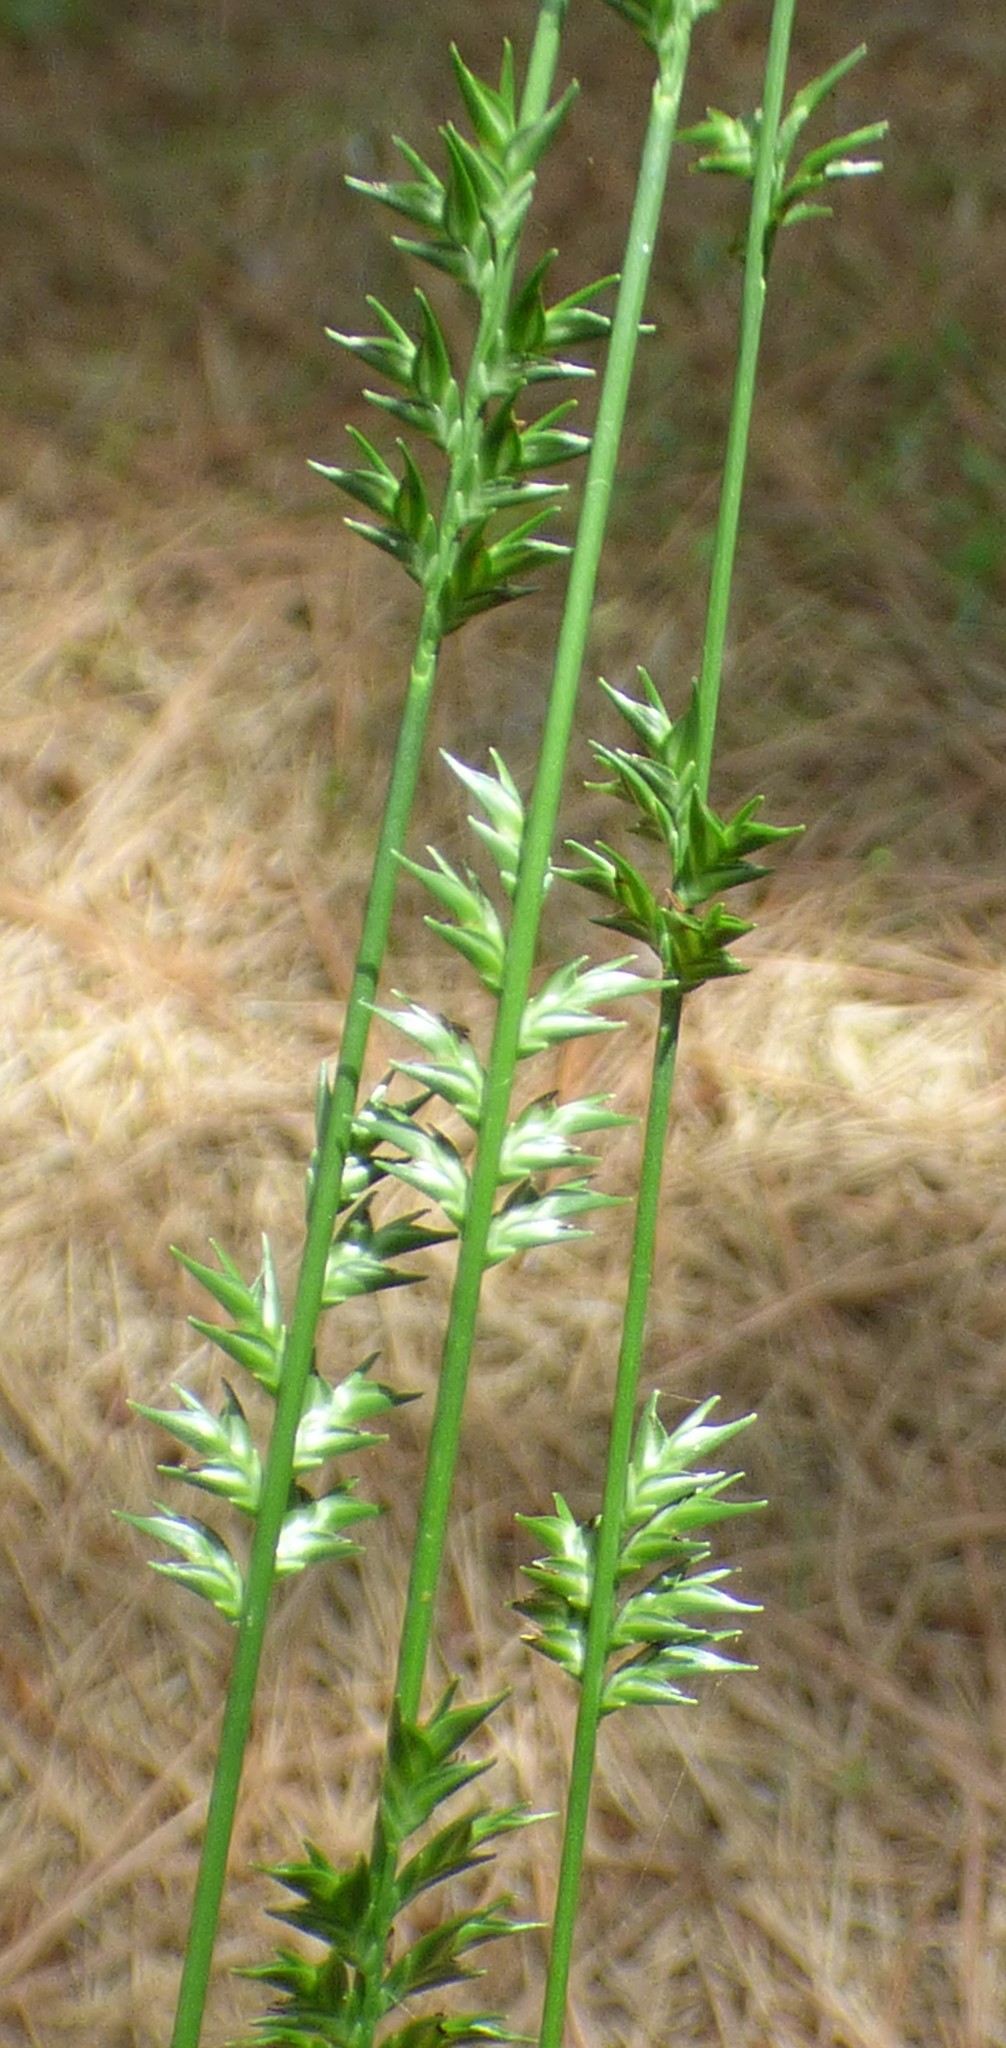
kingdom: Plantae
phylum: Tracheophyta
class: Liliopsida
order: Poales
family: Poaceae
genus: Chasmanthium
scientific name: Chasmanthium laxum
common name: Slender chasmanthium
